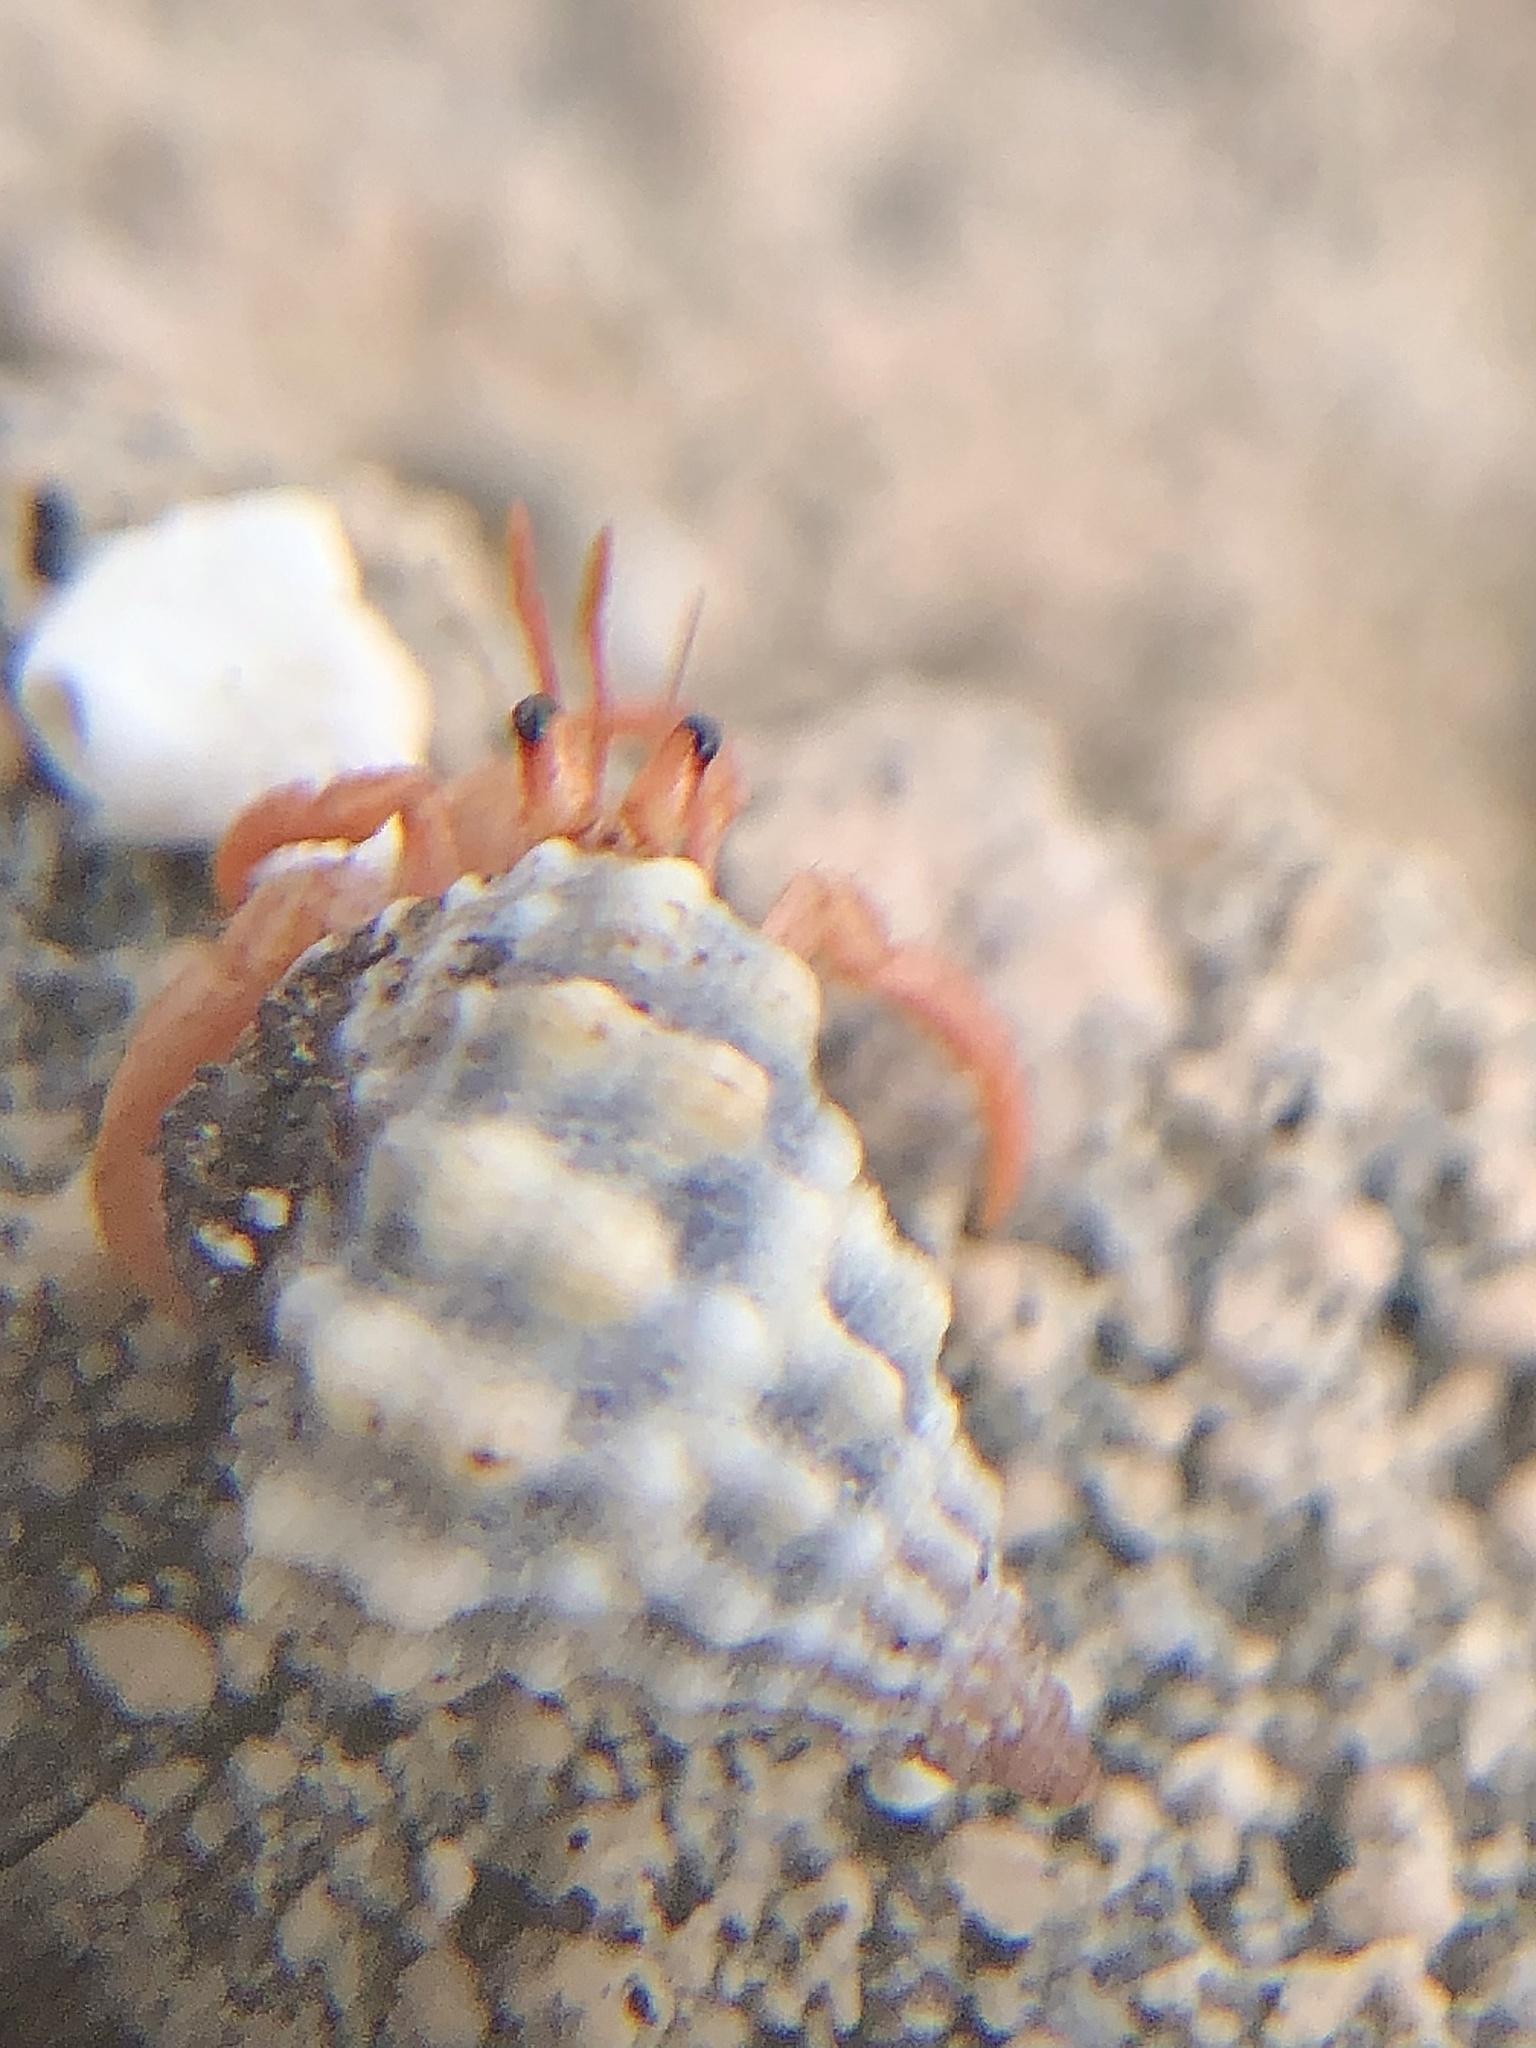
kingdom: Animalia
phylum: Arthropoda
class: Malacostraca
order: Decapoda
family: Coenobitidae
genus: Coenobita
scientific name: Coenobita clypeatus
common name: Caribbean hermit crab
